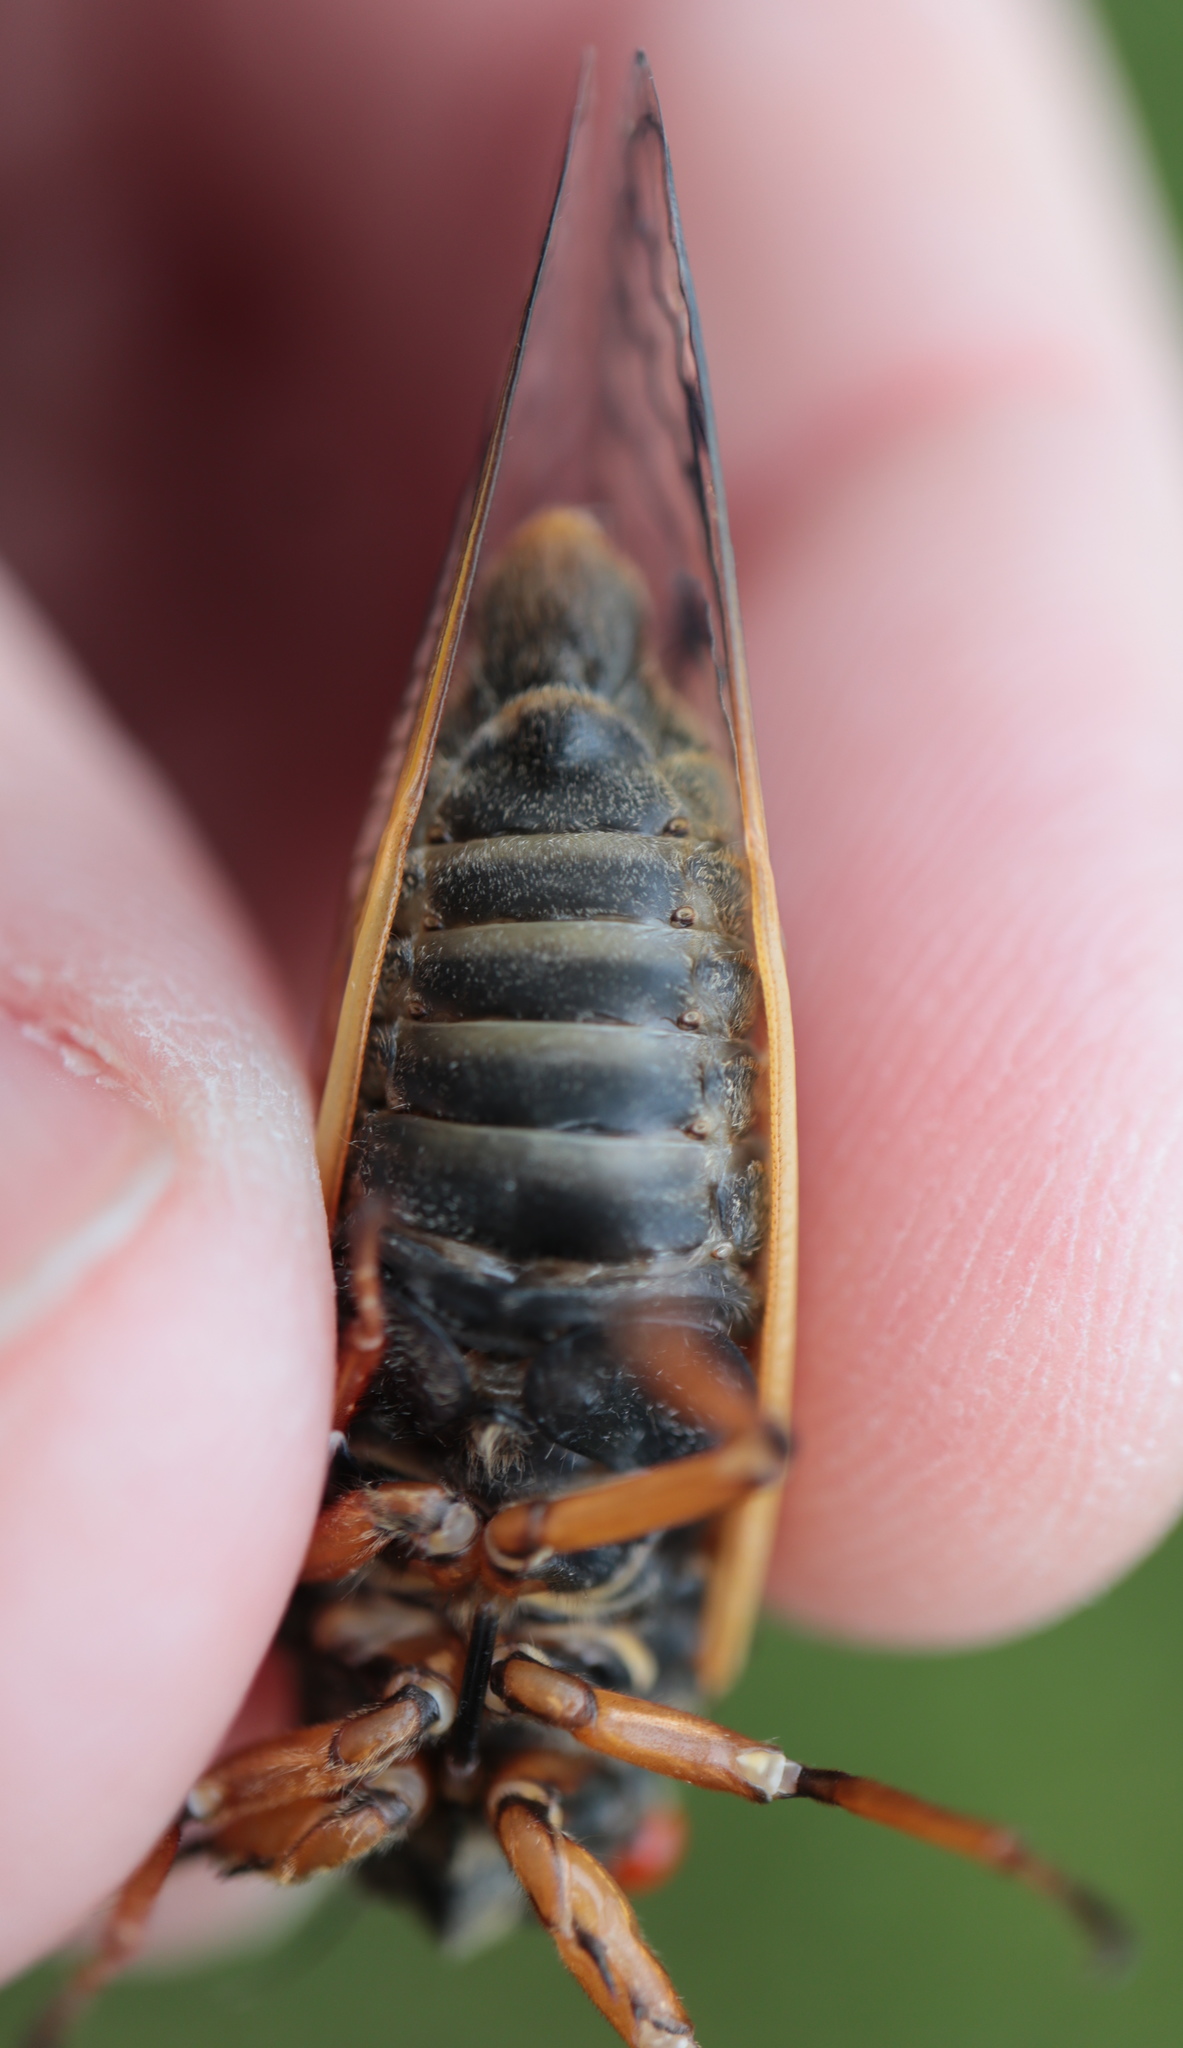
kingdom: Animalia
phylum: Arthropoda
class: Insecta
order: Hemiptera
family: Cicadidae
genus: Magicicada
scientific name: Magicicada cassini
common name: Cassin's 17-year cicada
